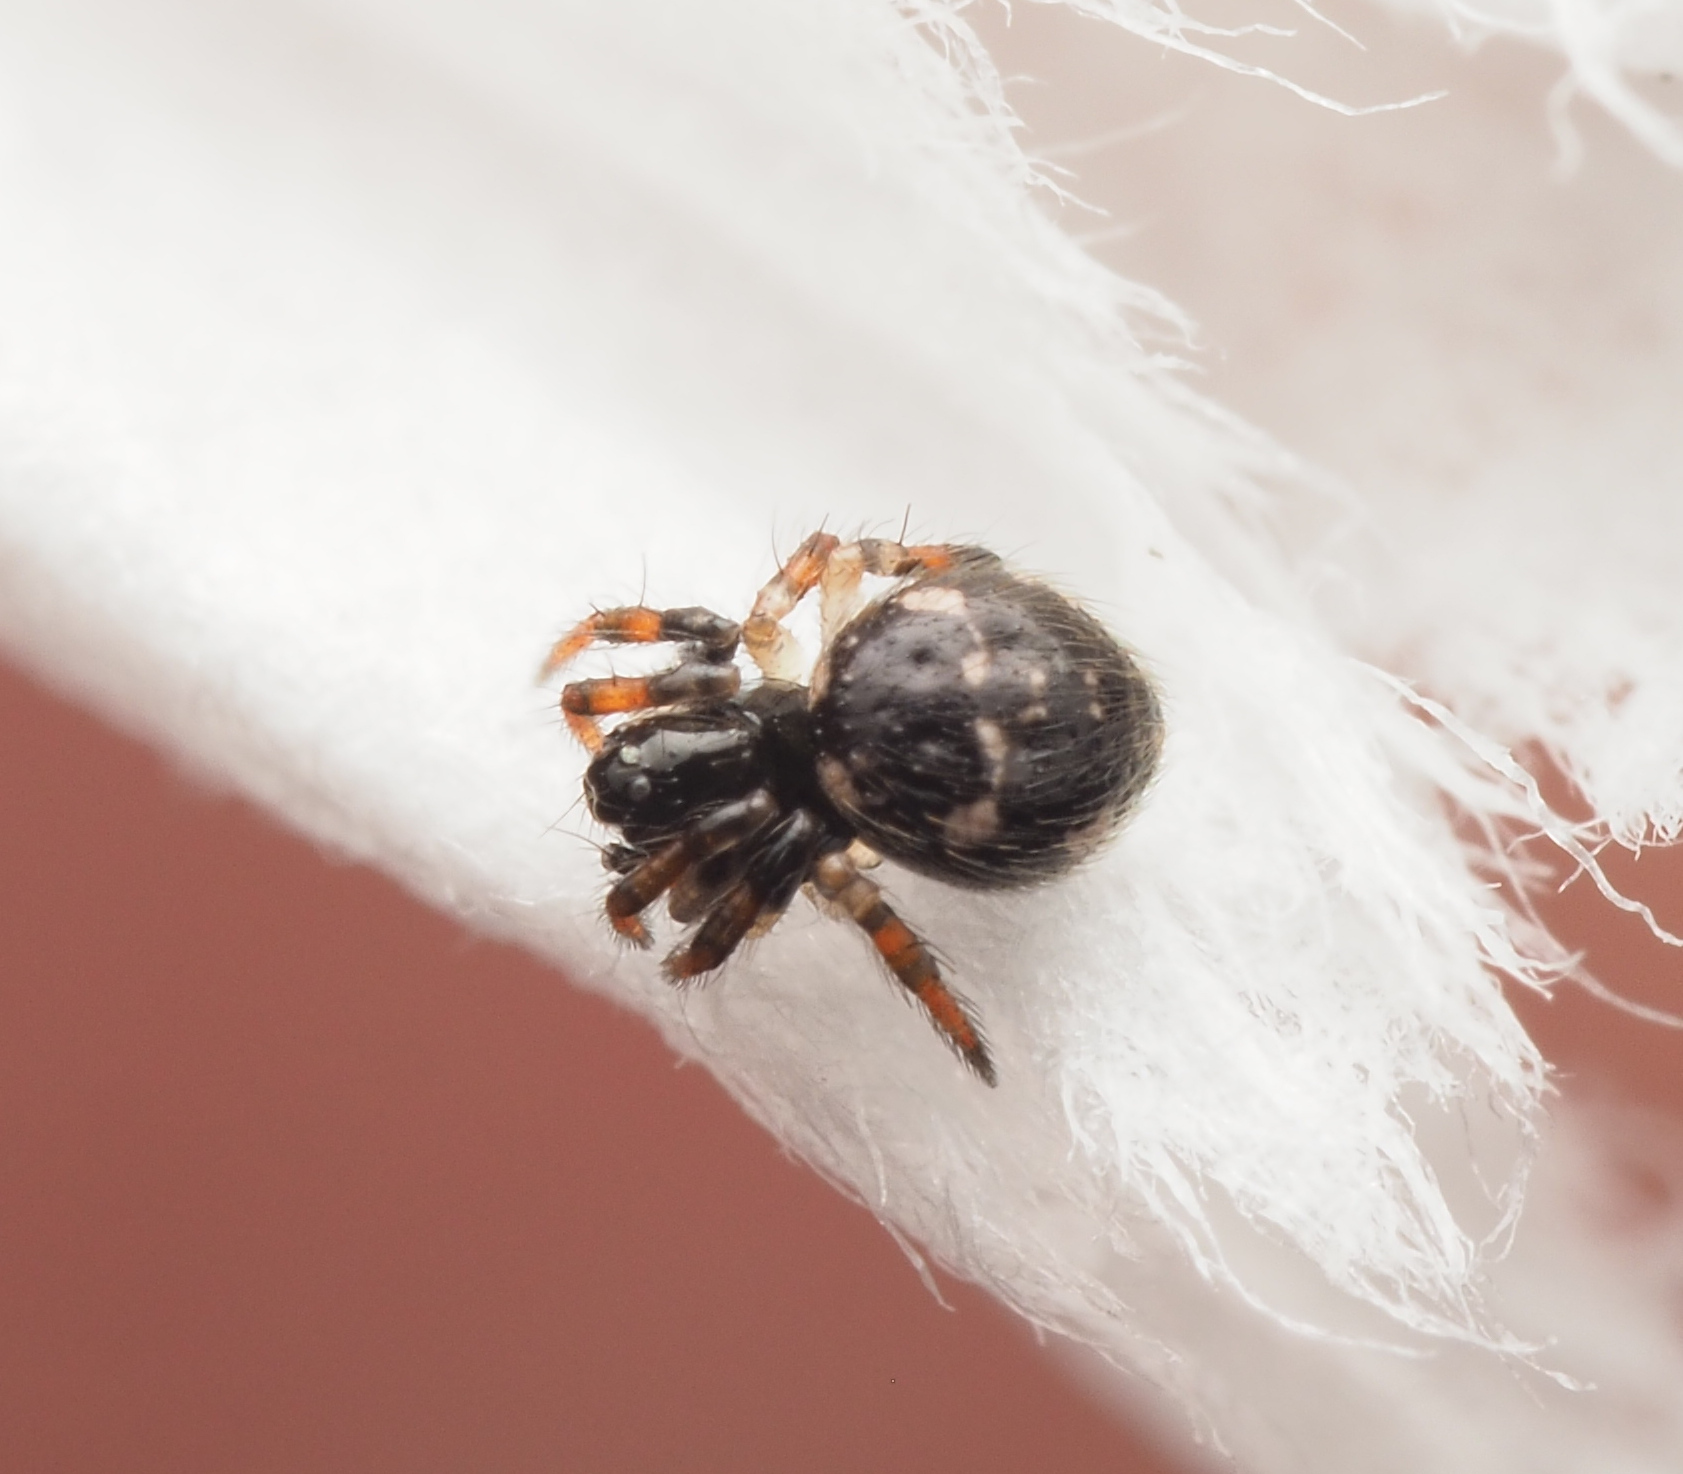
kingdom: Animalia
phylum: Arthropoda
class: Arachnida
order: Araneae
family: Theridiidae
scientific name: Theridiidae
